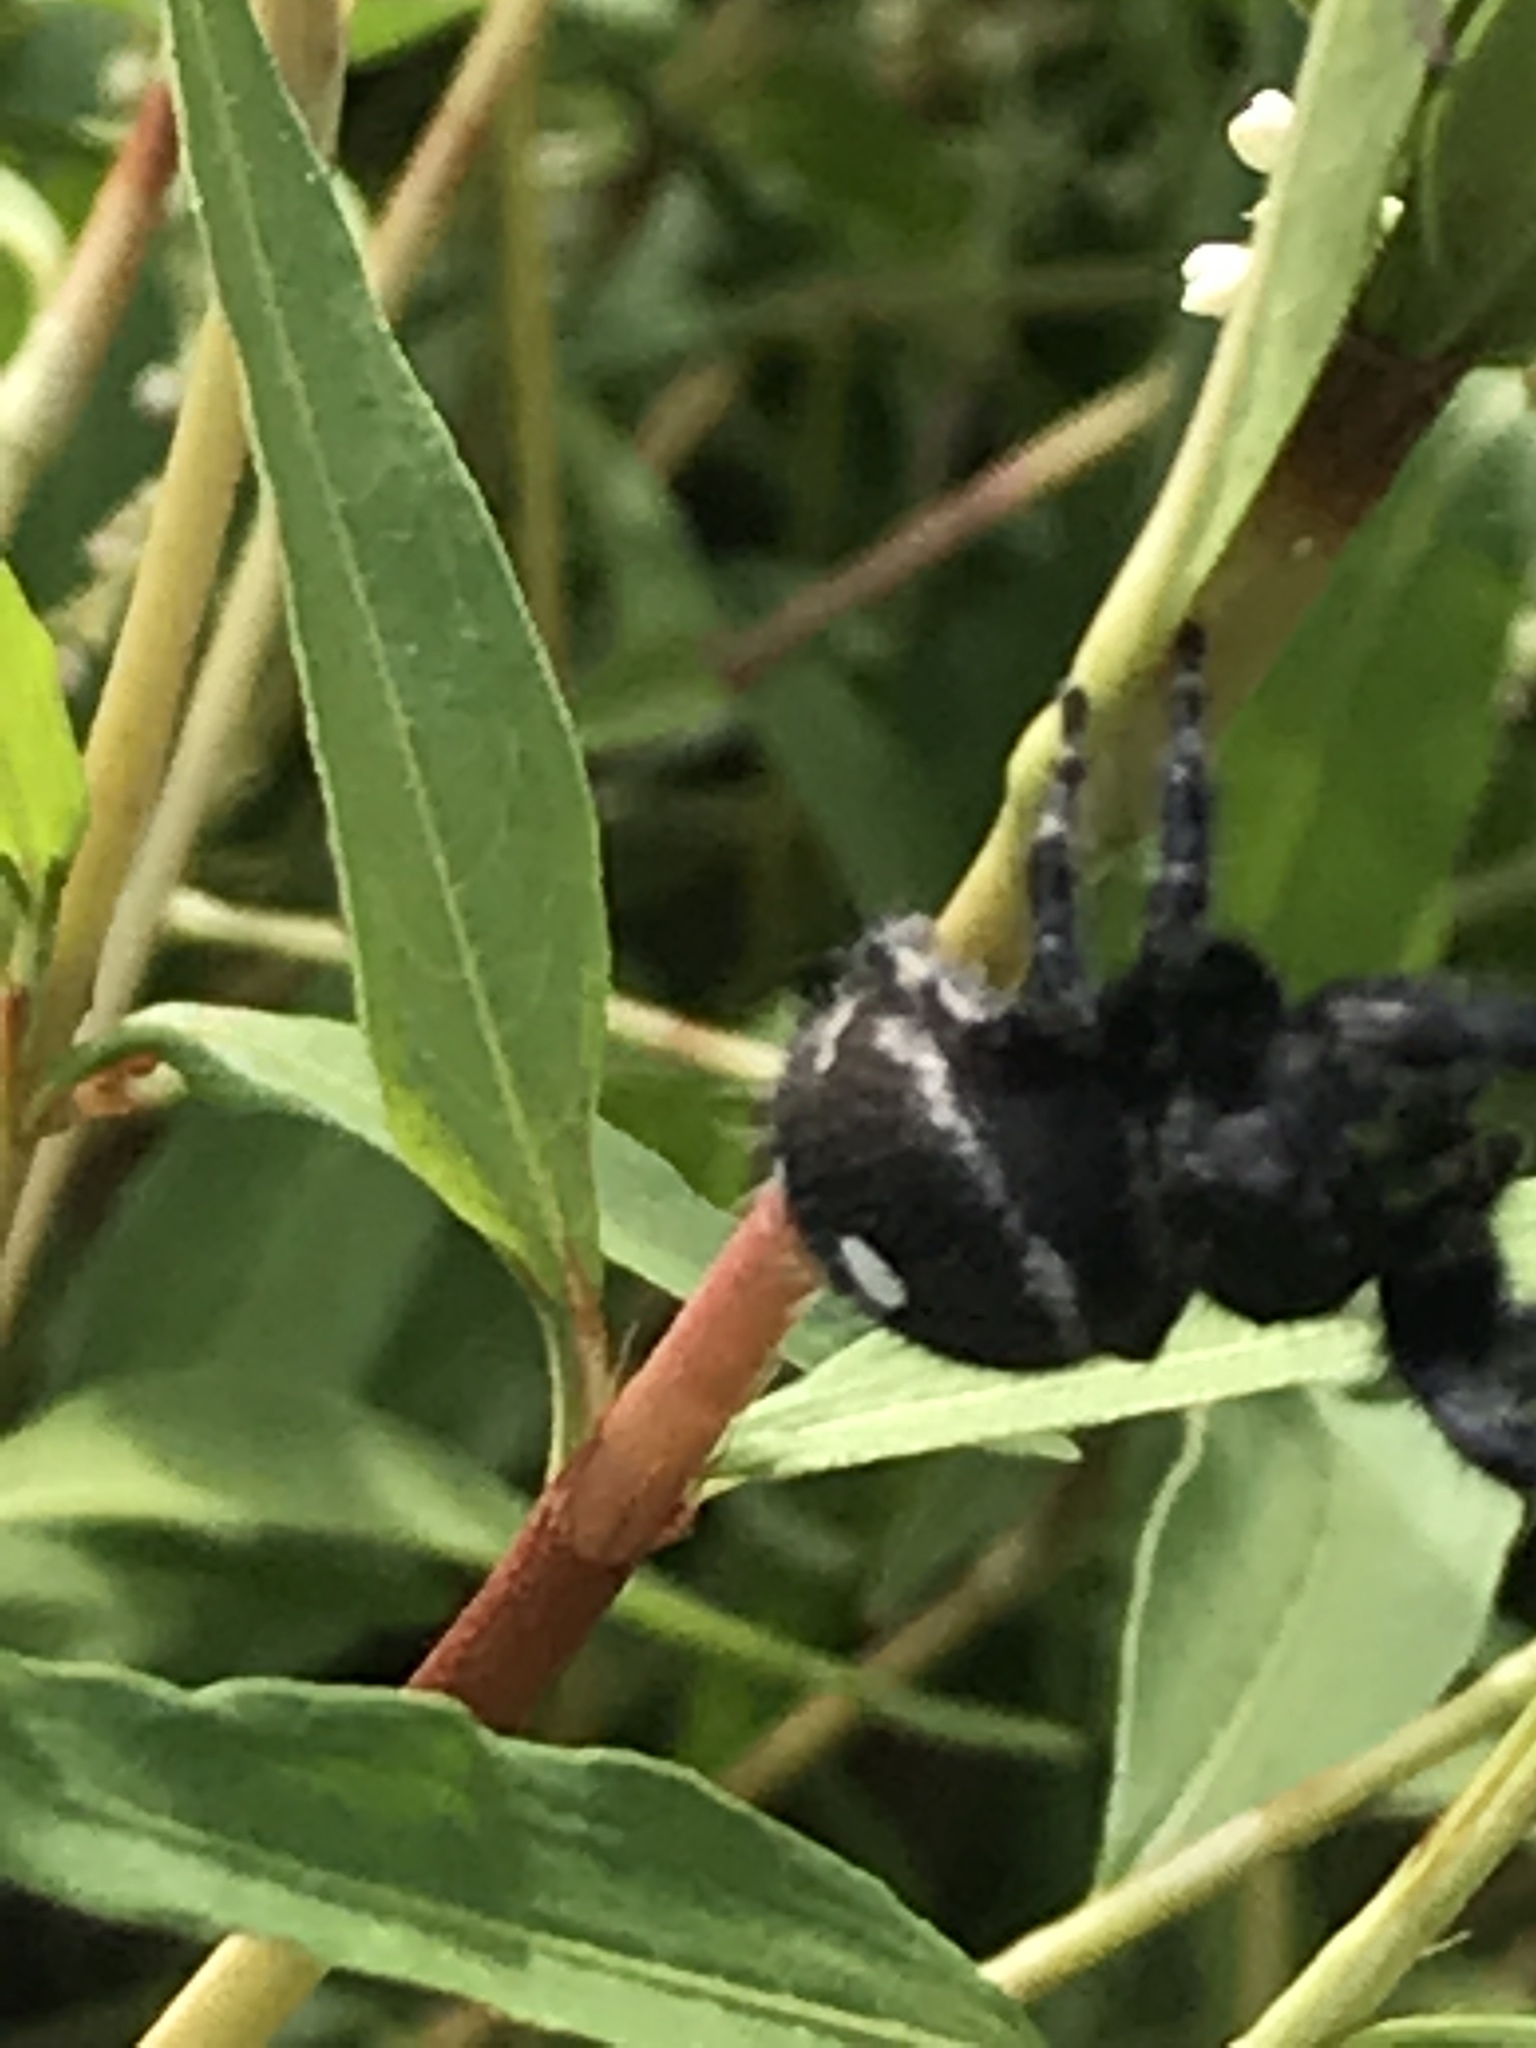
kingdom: Animalia
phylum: Arthropoda
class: Arachnida
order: Araneae
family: Salticidae
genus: Phidippus
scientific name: Phidippus audax
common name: Bold jumper
